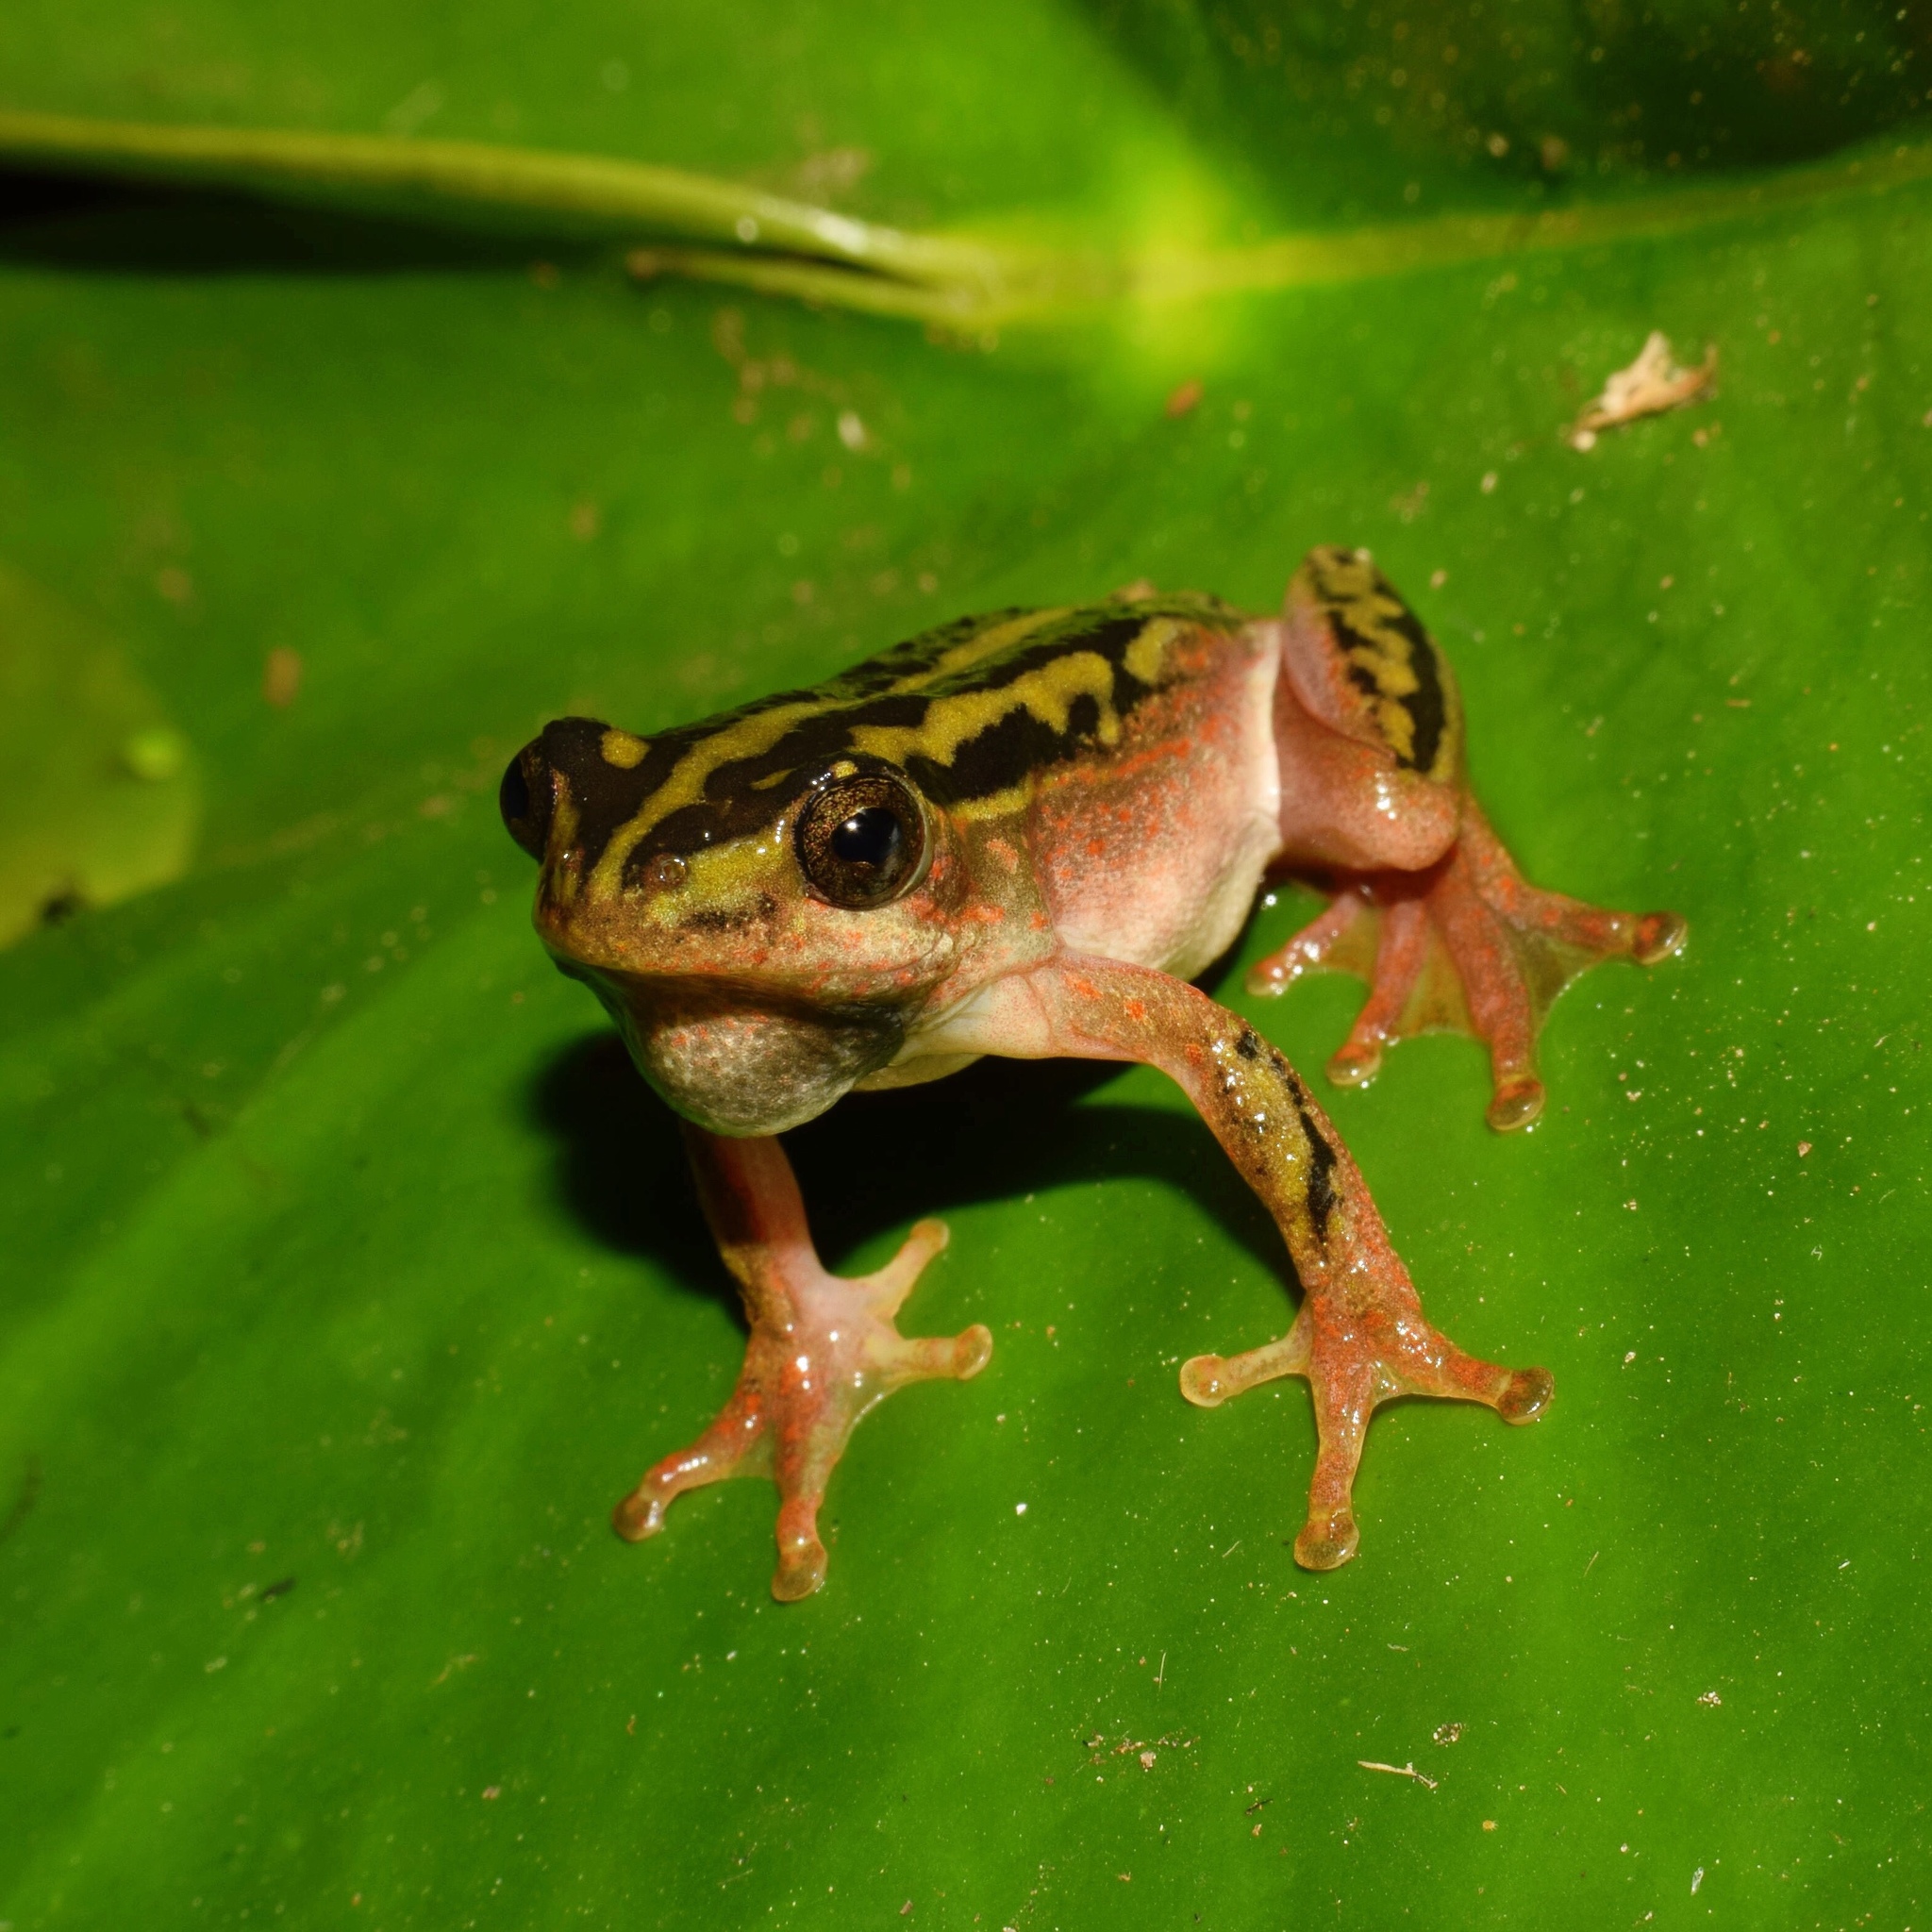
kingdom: Animalia
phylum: Chordata
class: Amphibia
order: Anura
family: Hyperoliidae
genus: Hyperolius
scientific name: Hyperolius marmoratus
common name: Painted reed frog
